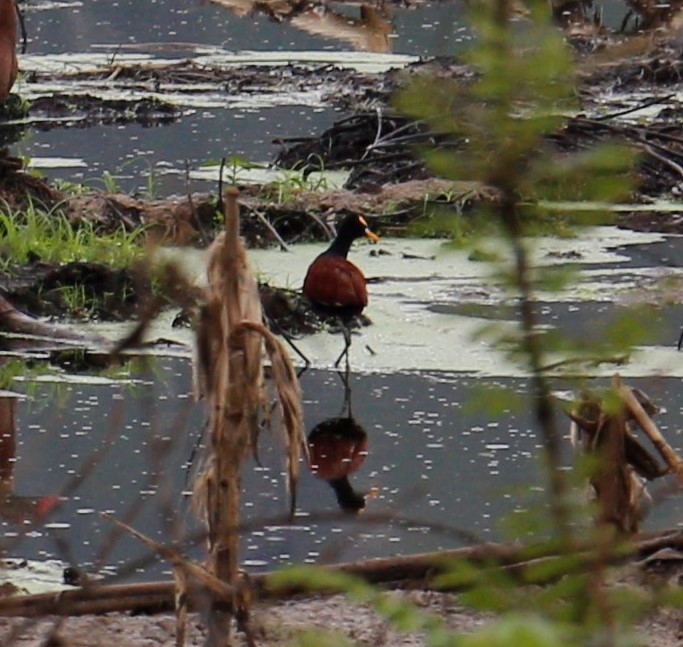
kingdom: Animalia
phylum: Chordata
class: Aves
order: Charadriiformes
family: Jacanidae
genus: Jacana
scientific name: Jacana spinosa
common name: Northern jacana
